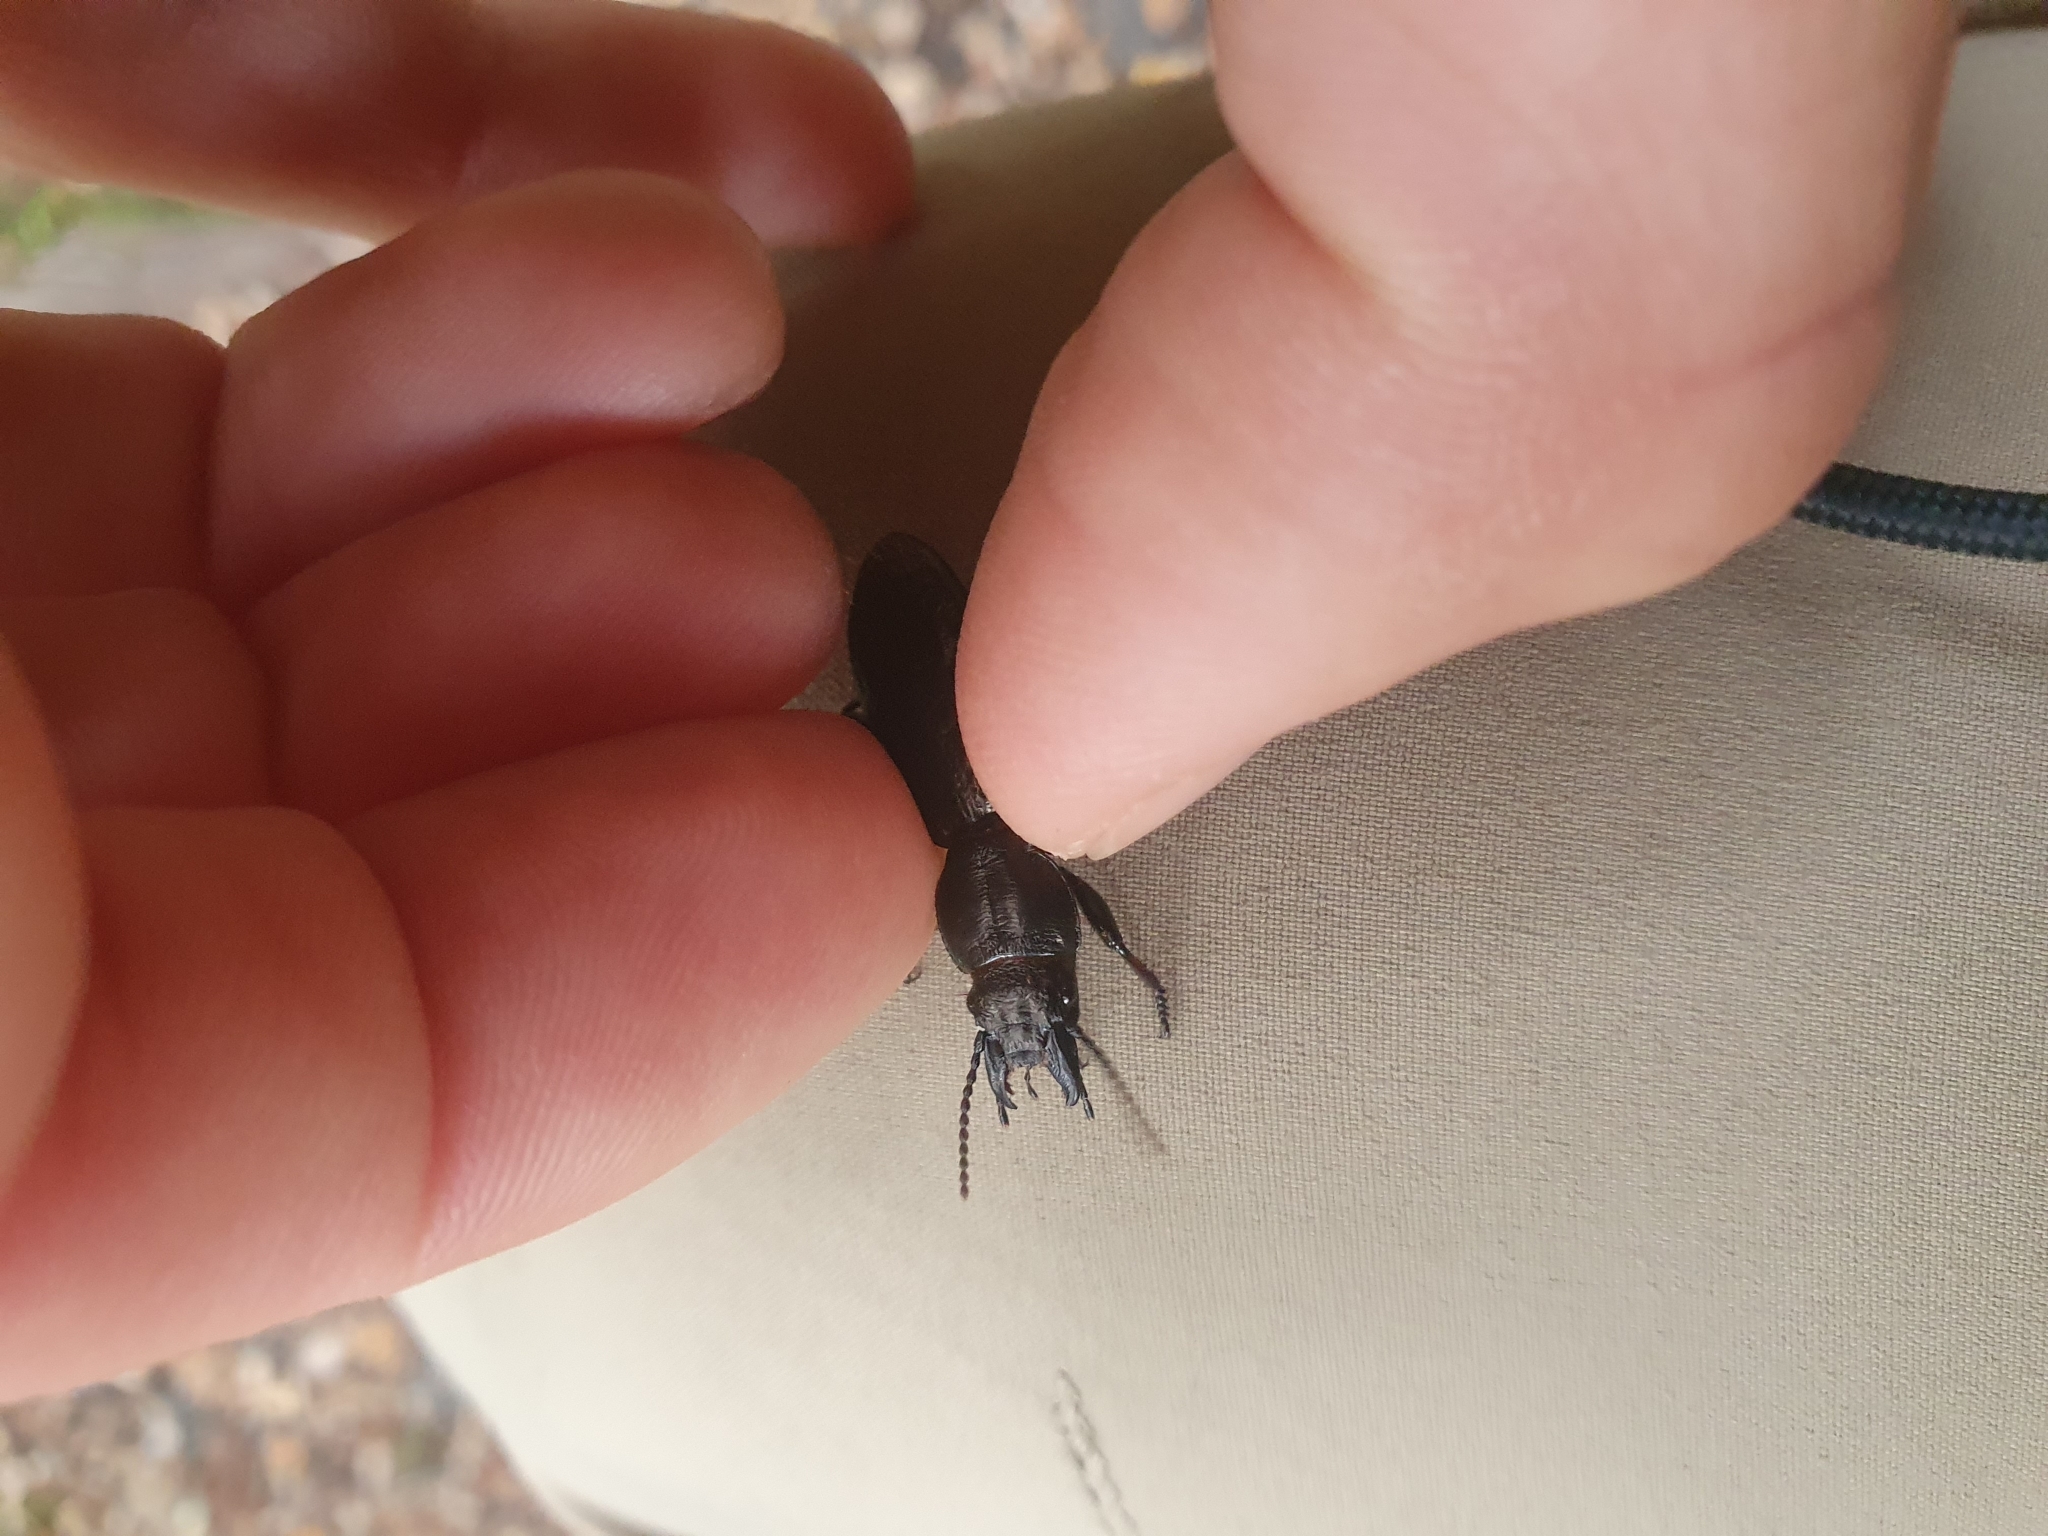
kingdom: Animalia
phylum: Arthropoda
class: Insecta
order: Coleoptera
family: Carabidae
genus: Mecodema
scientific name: Mecodema bullatum
